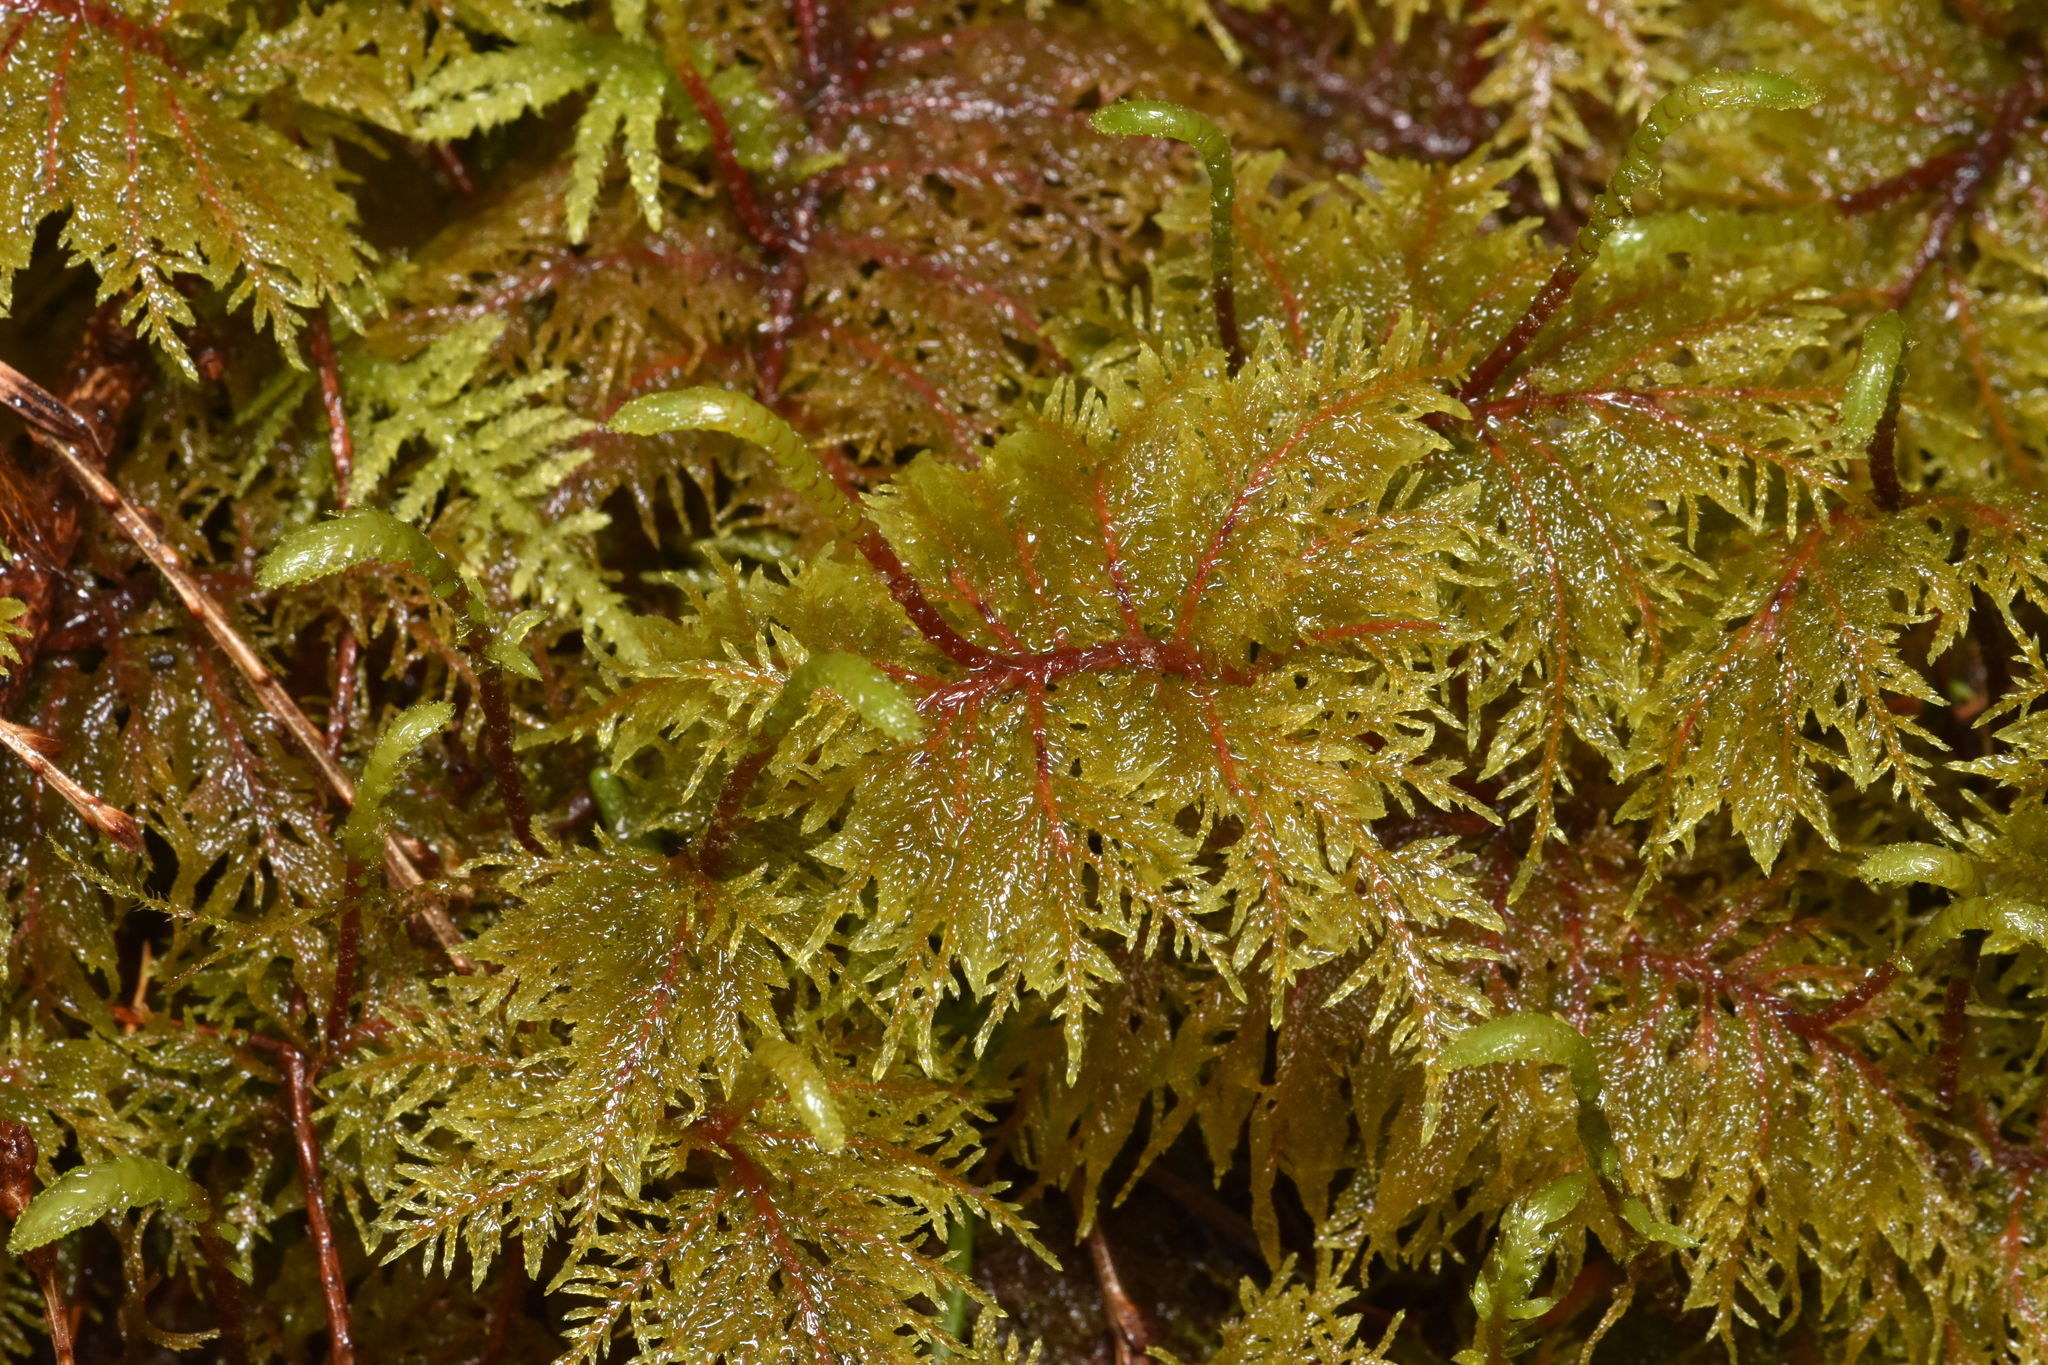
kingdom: Plantae
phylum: Bryophyta
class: Bryopsida
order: Hypnales
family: Hylocomiaceae
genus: Hylocomium
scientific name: Hylocomium splendens
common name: Stairstep moss
